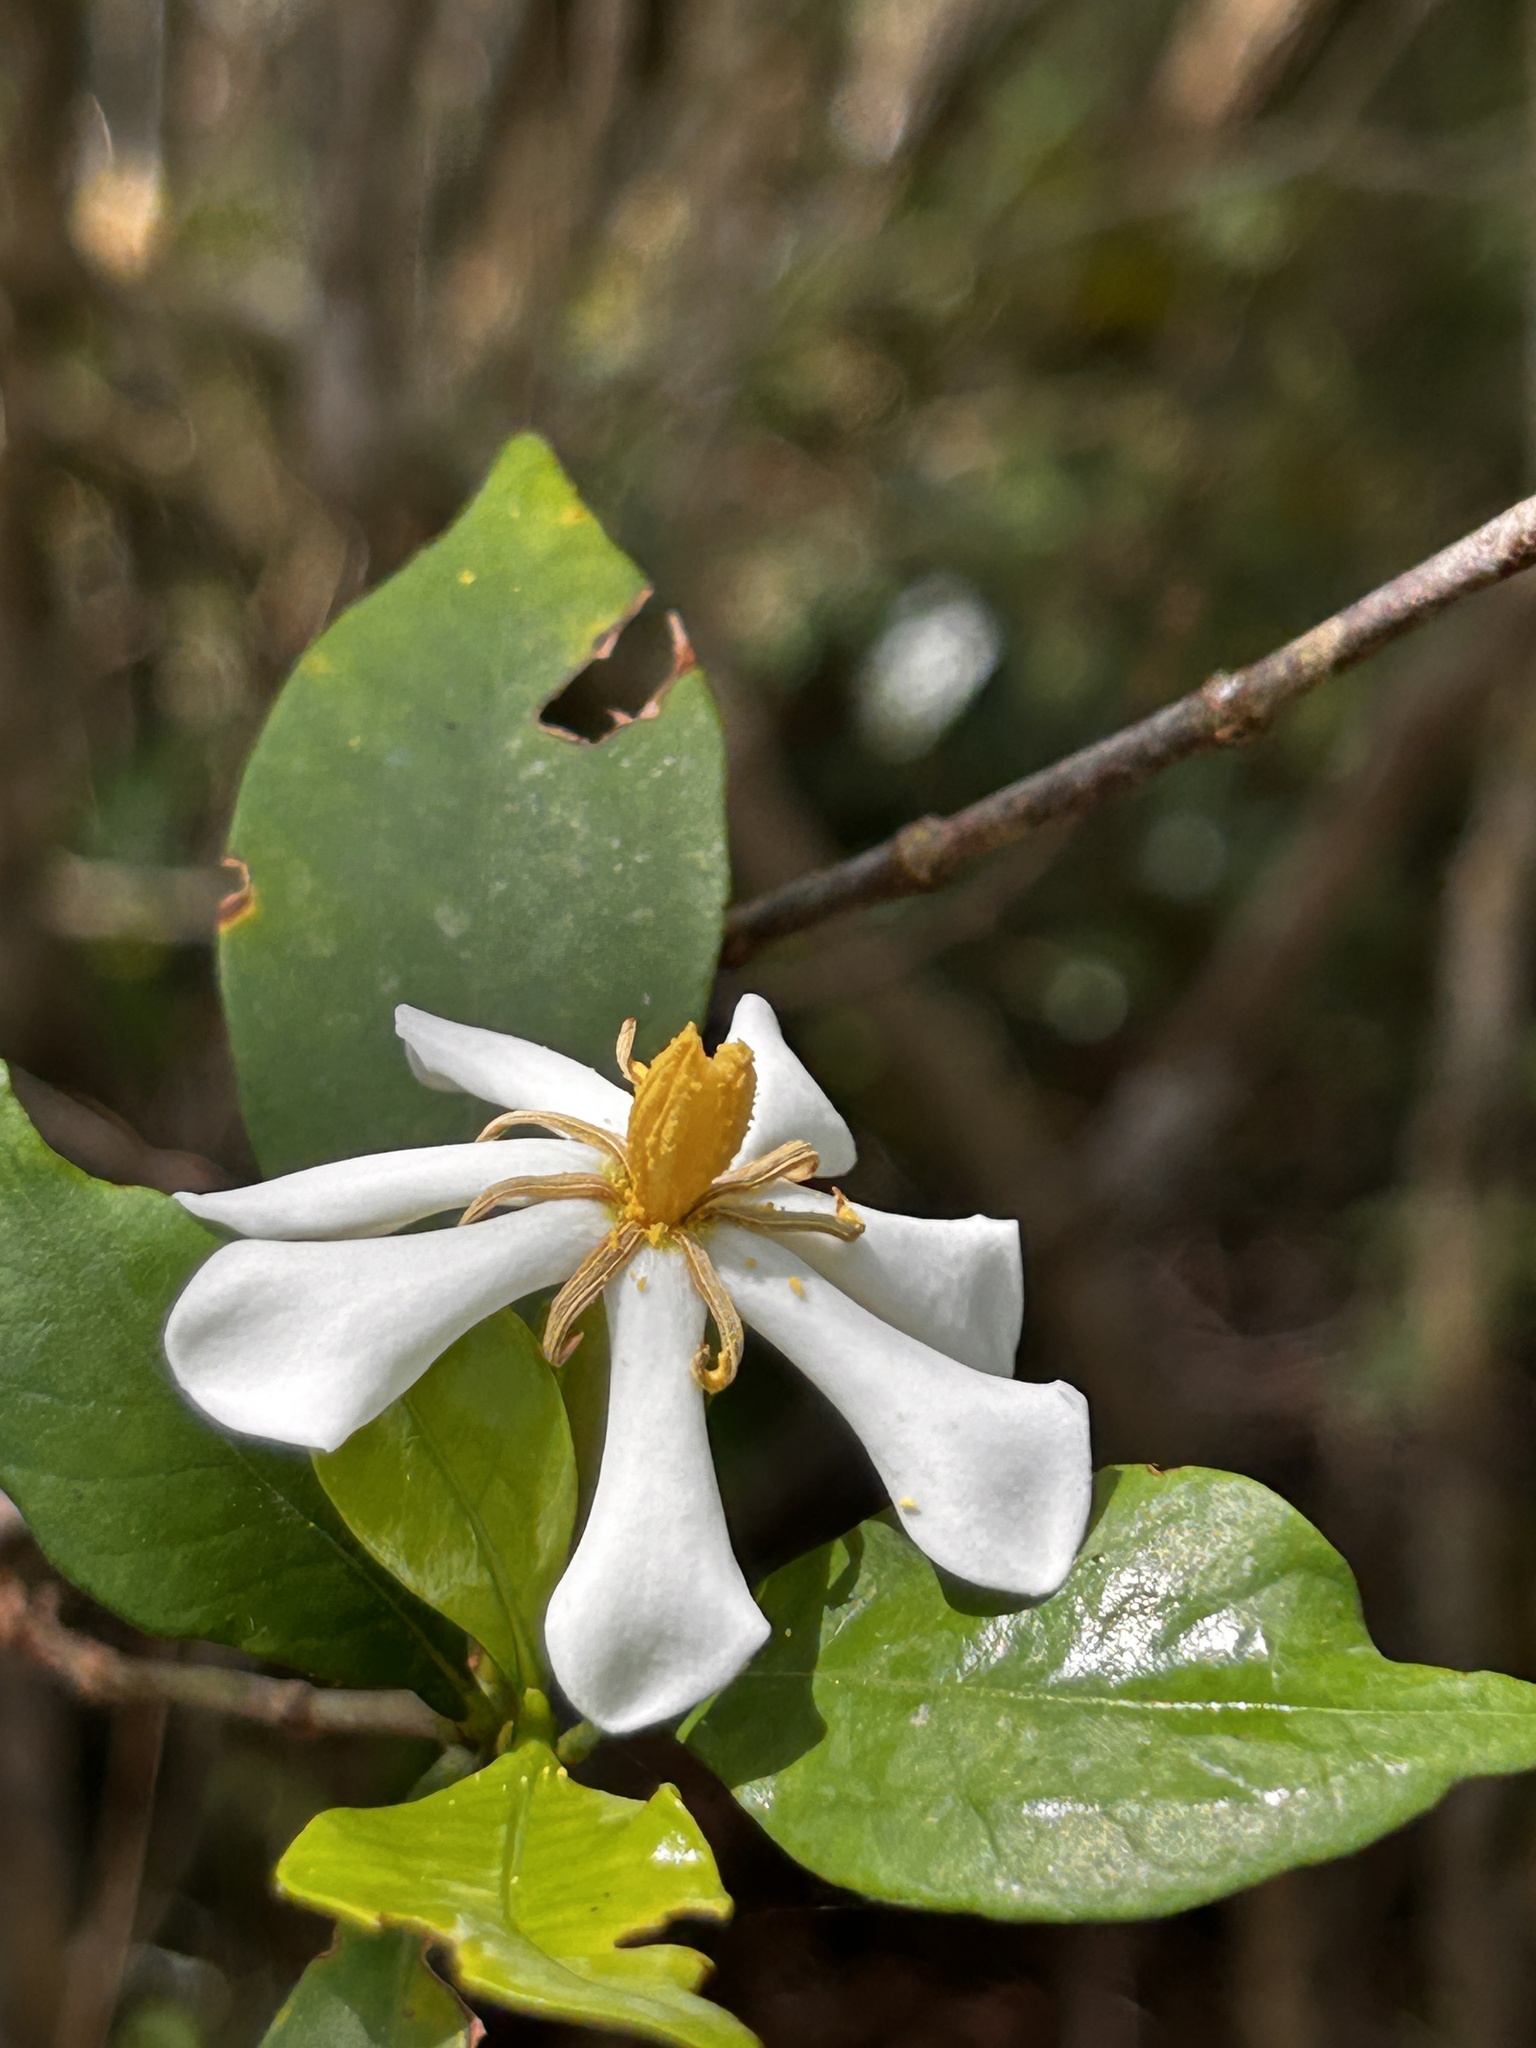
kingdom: Plantae
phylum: Tracheophyta
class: Magnoliopsida
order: Gentianales
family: Rubiaceae
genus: Gardenia
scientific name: Gardenia jasminoides
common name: Cape-jasmine
